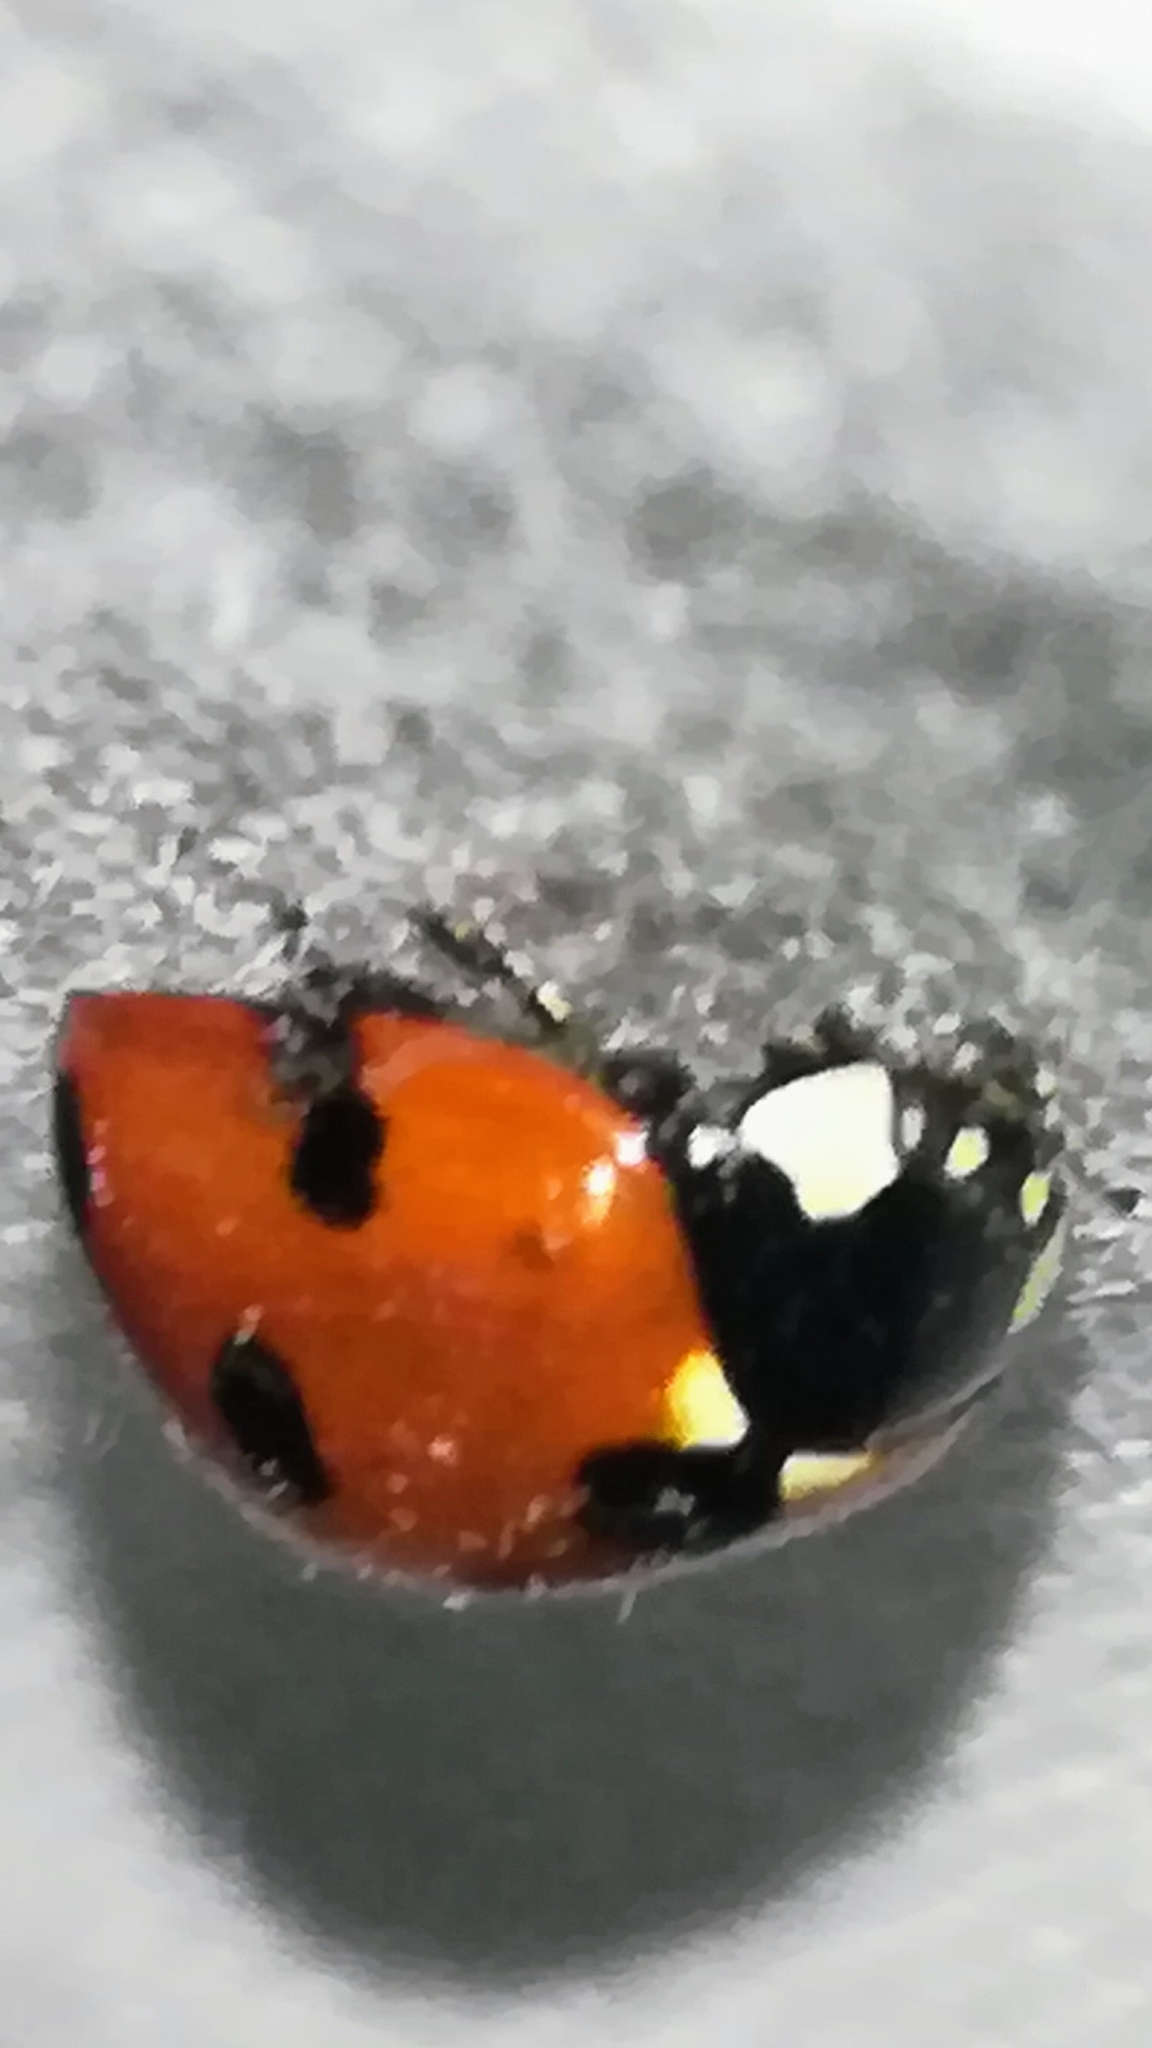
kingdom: Animalia
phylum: Arthropoda
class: Insecta
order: Coleoptera
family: Coccinellidae
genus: Coccinella
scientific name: Coccinella septempunctata
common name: Sevenspotted lady beetle
